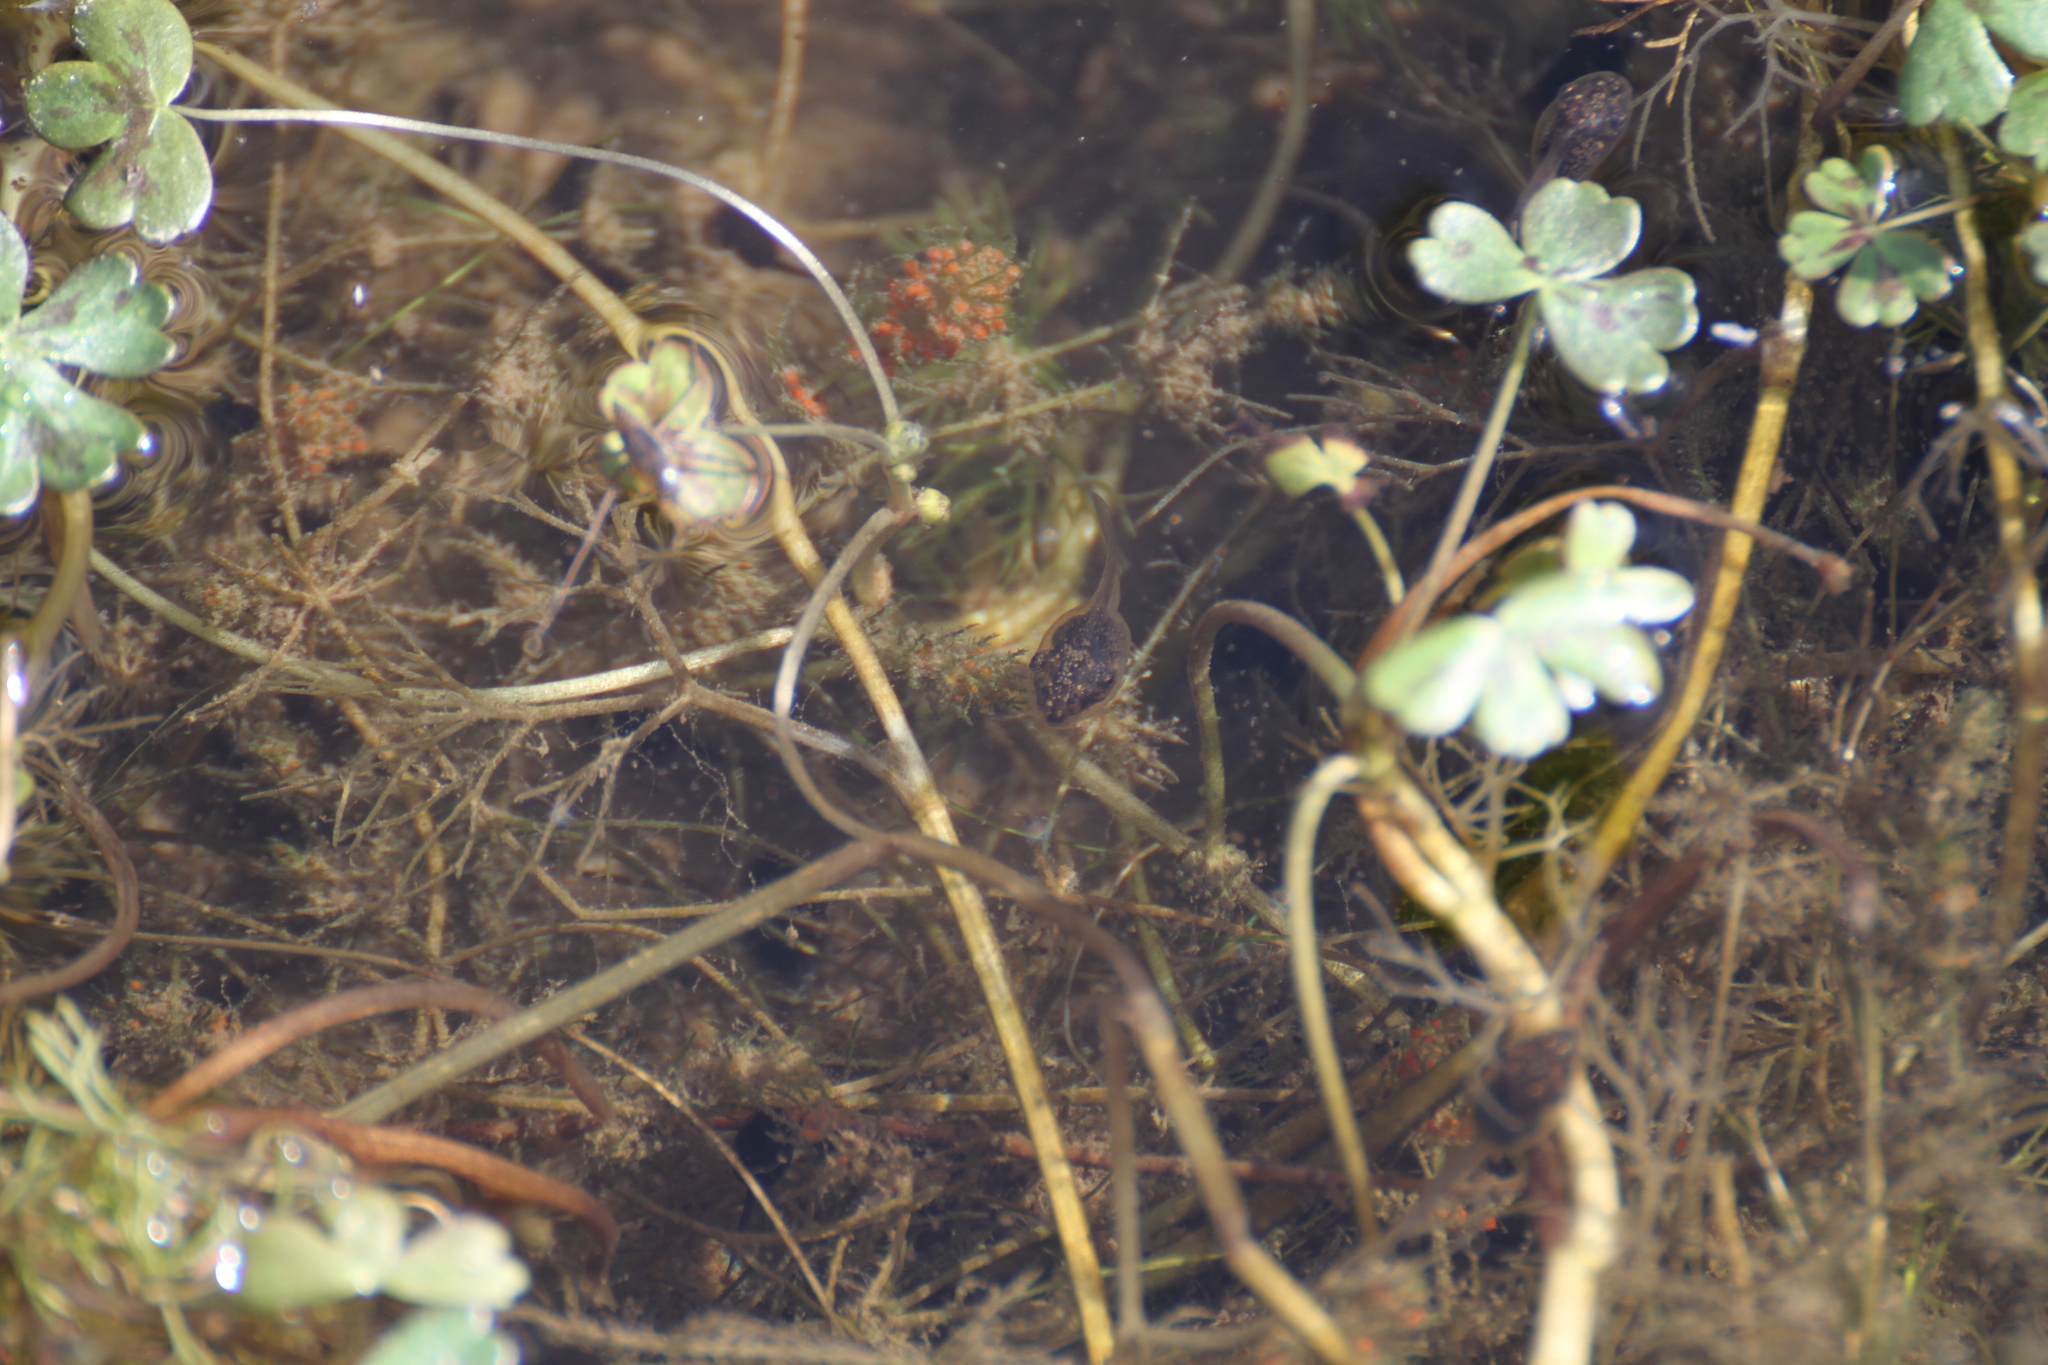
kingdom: Animalia
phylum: Chordata
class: Amphibia
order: Anura
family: Hylidae
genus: Hyla
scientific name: Hyla meridionalis
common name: Stripeless tree frog
